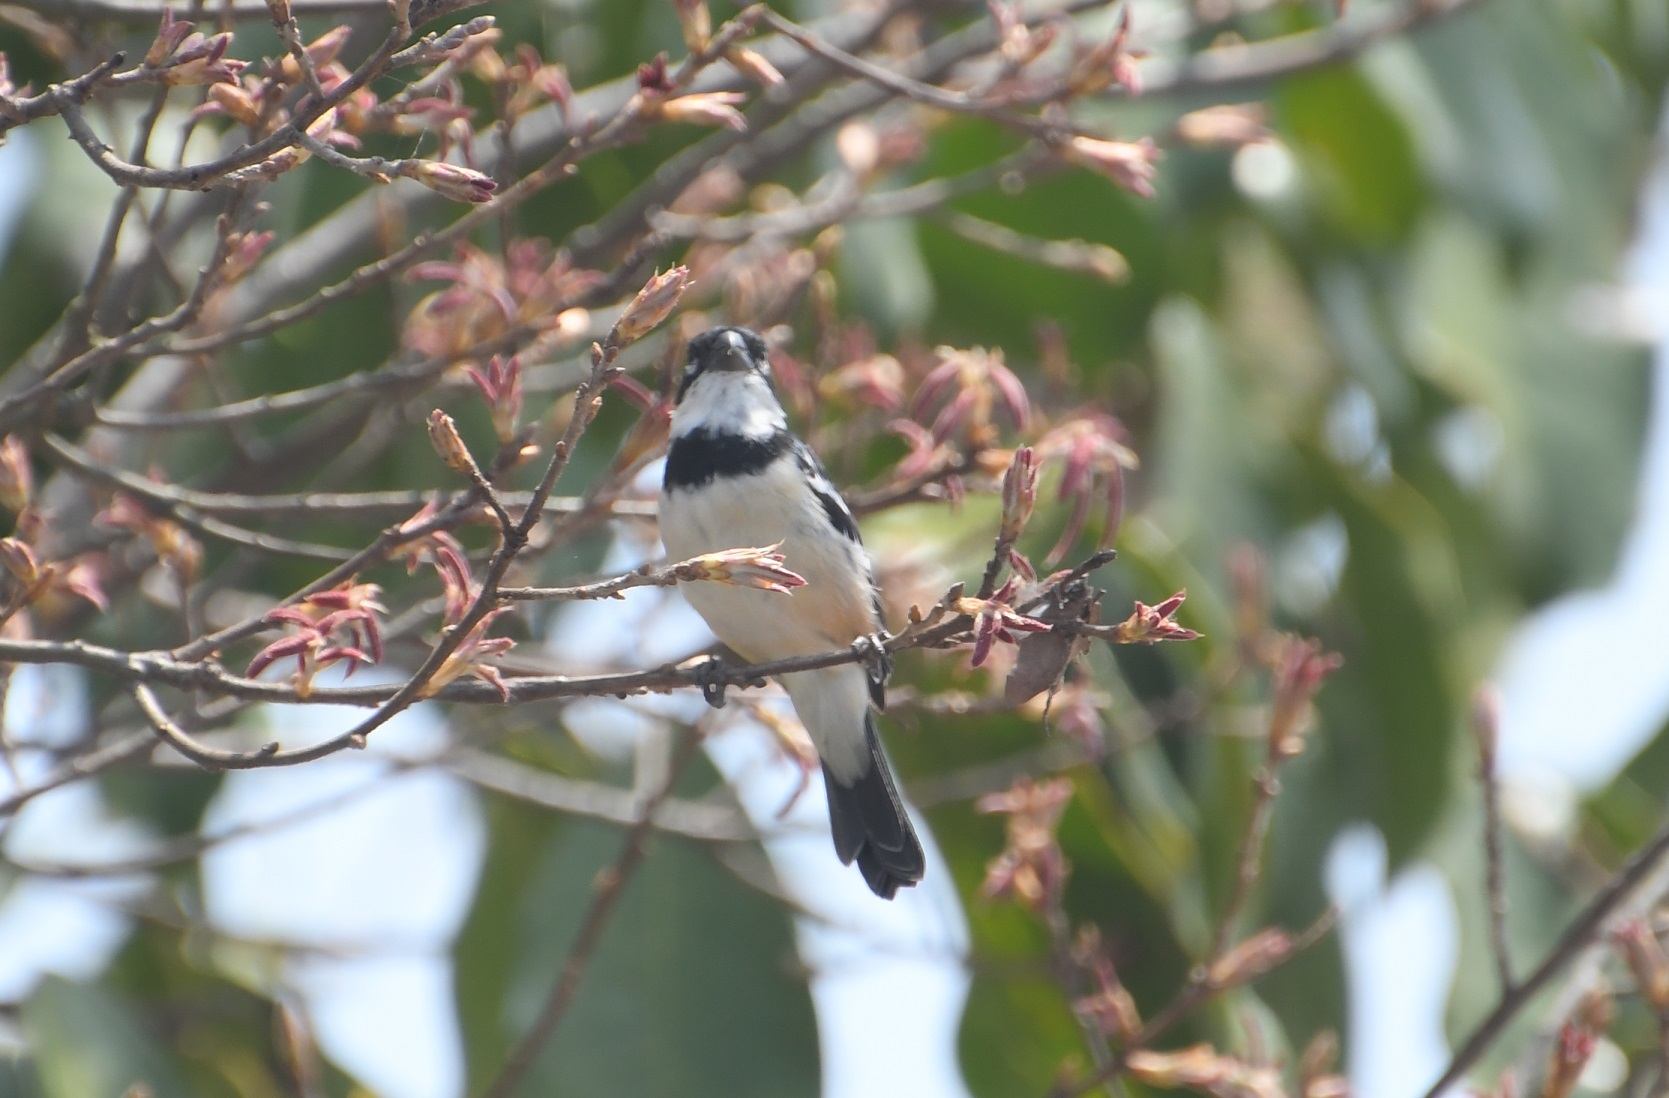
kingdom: Animalia
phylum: Chordata
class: Aves
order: Passeriformes
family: Thraupidae
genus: Sporophila
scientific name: Sporophila morelleti
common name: Morelet's seedeater
